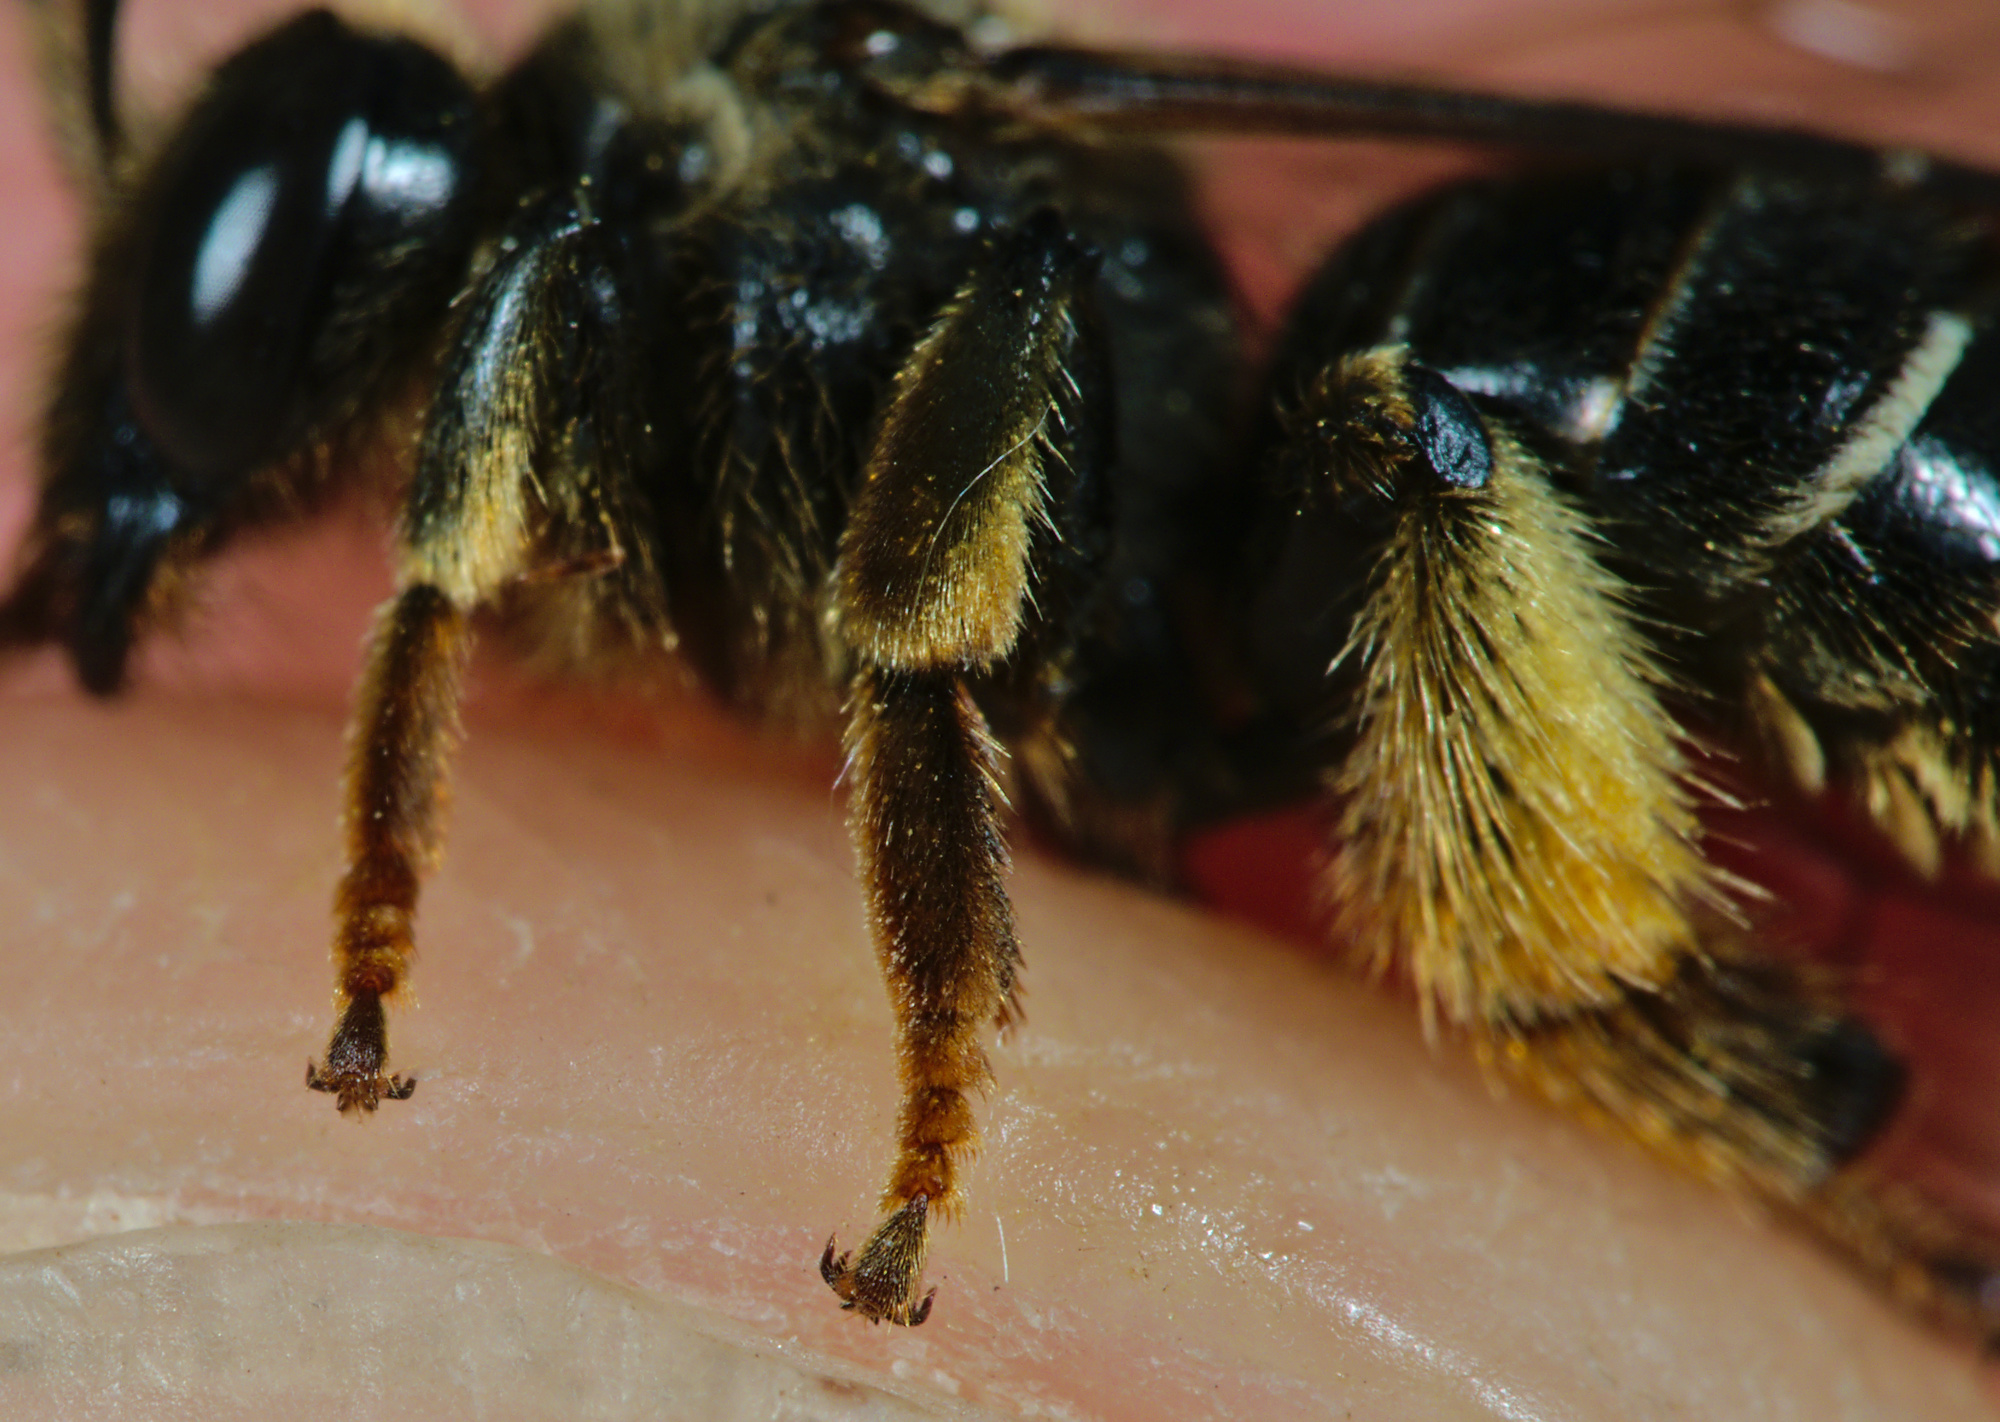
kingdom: Animalia
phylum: Arthropoda
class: Insecta
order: Hymenoptera
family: Melittidae
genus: Macropis
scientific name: Macropis fulvipes
